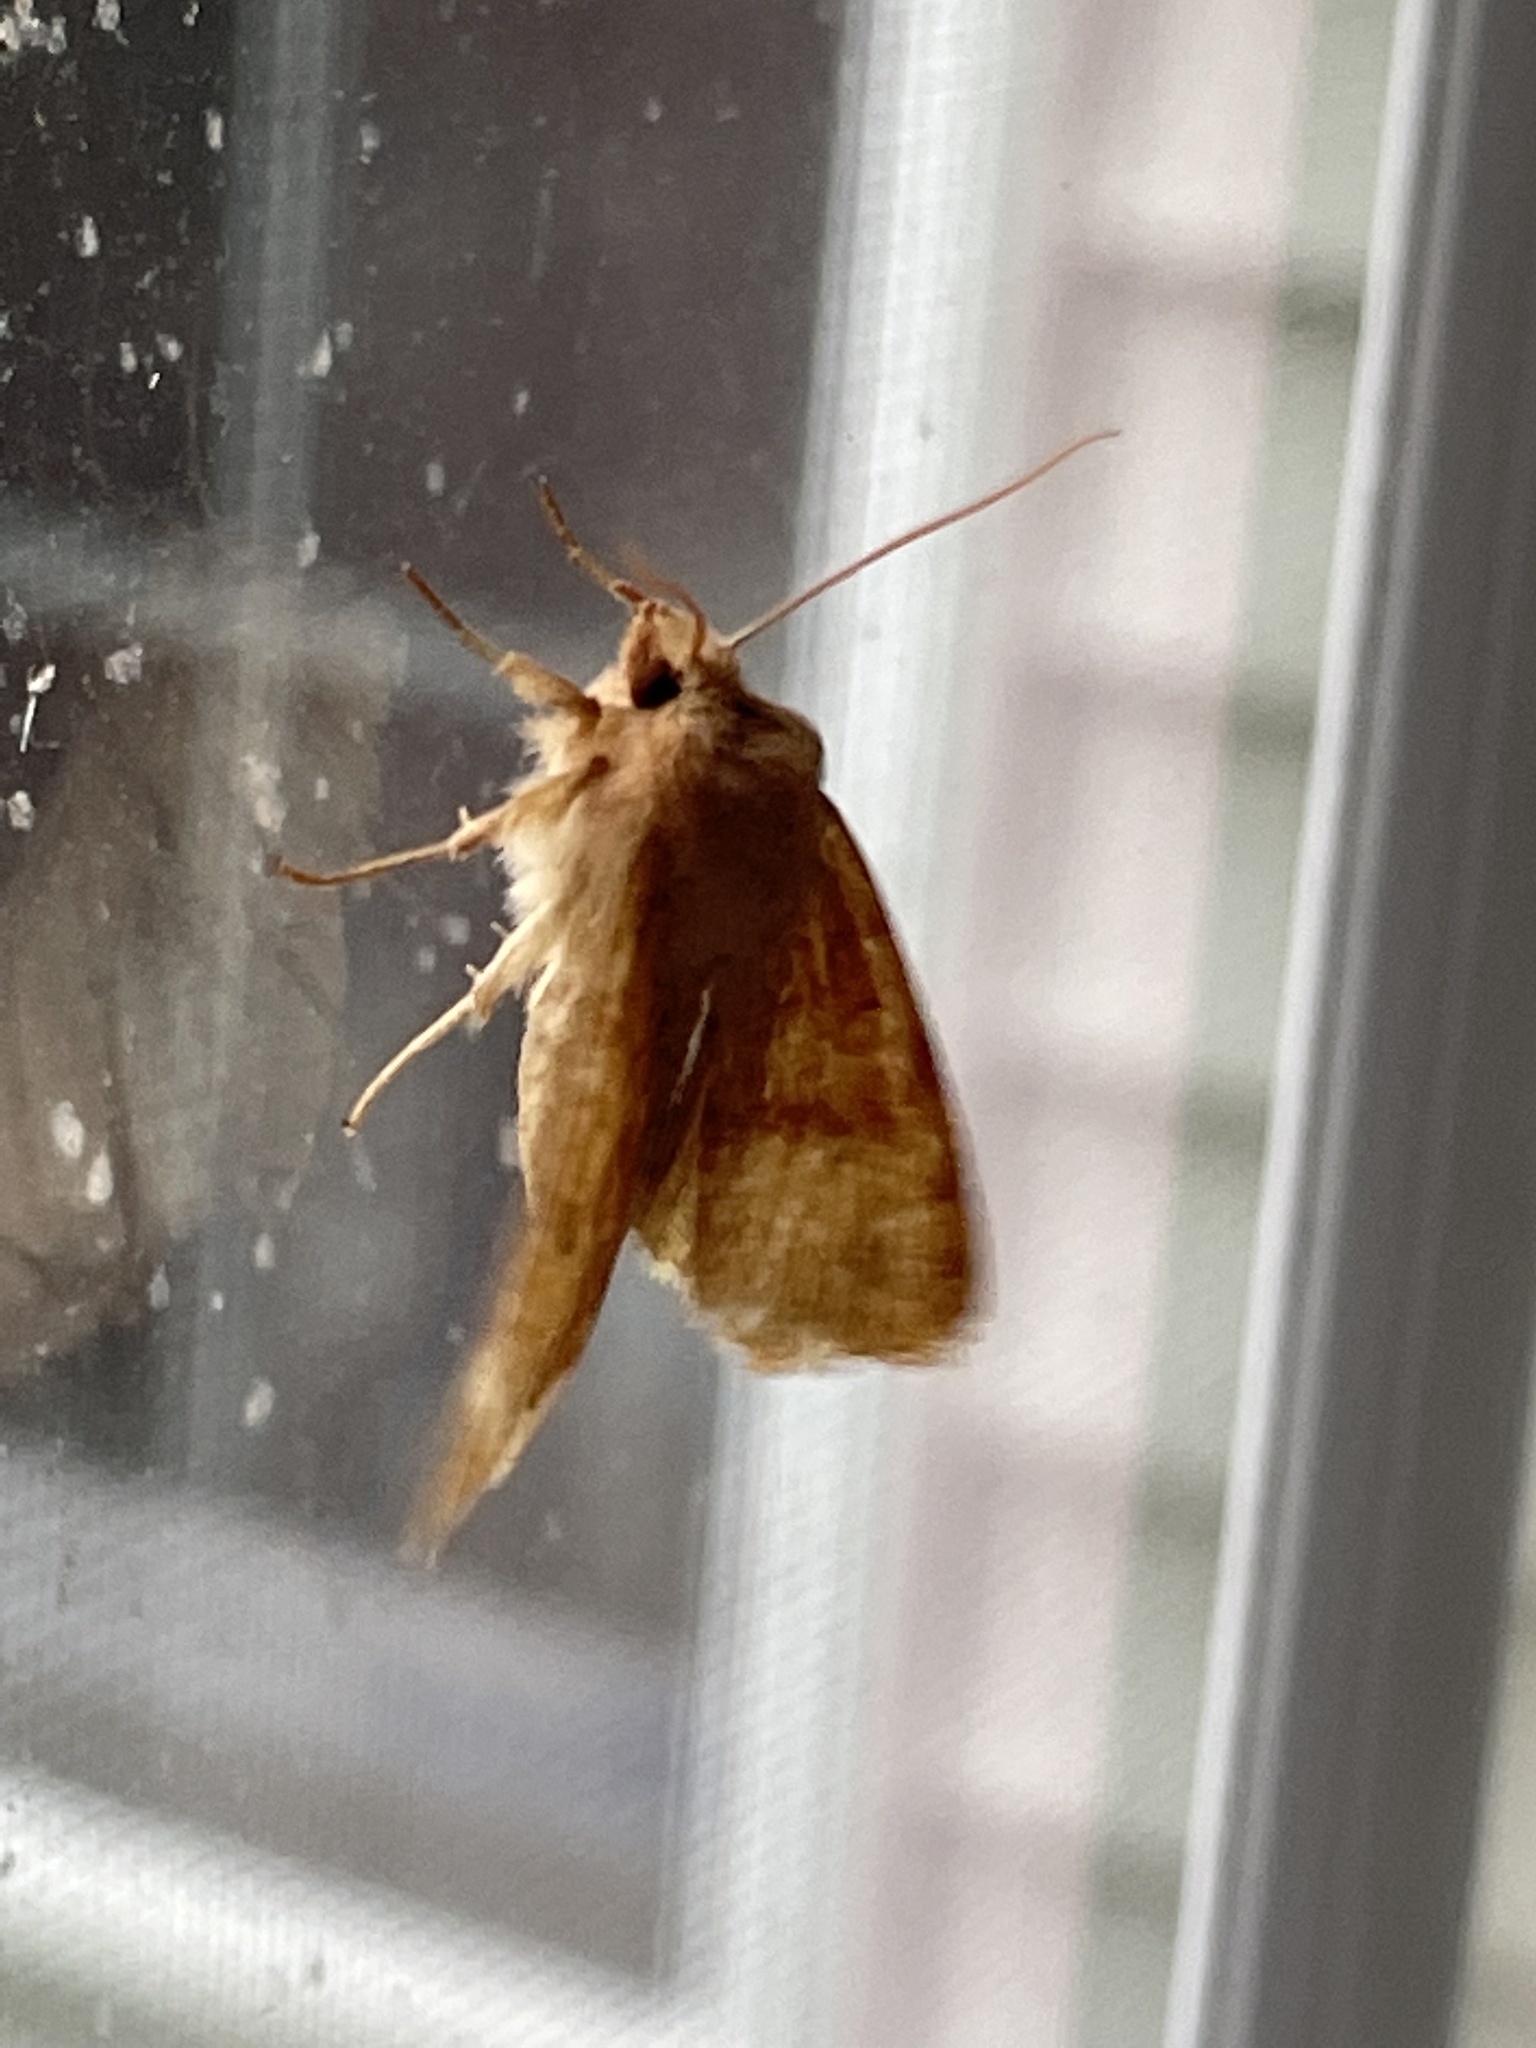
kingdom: Animalia
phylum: Arthropoda
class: Insecta
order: Lepidoptera
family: Noctuidae
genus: Agrochola
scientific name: Agrochola bicolorago
